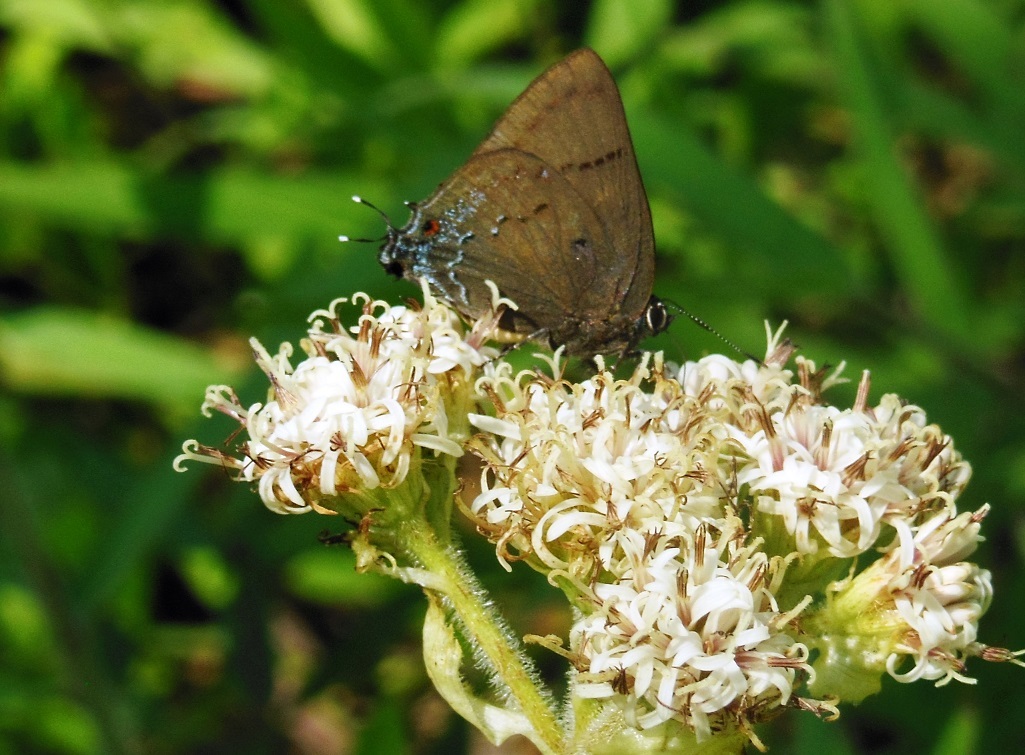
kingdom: Animalia
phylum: Arthropoda
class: Insecta
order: Lepidoptera
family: Lycaenidae
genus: Parrhasius
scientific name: Parrhasius polibetes
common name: Black-spot hairstreak
